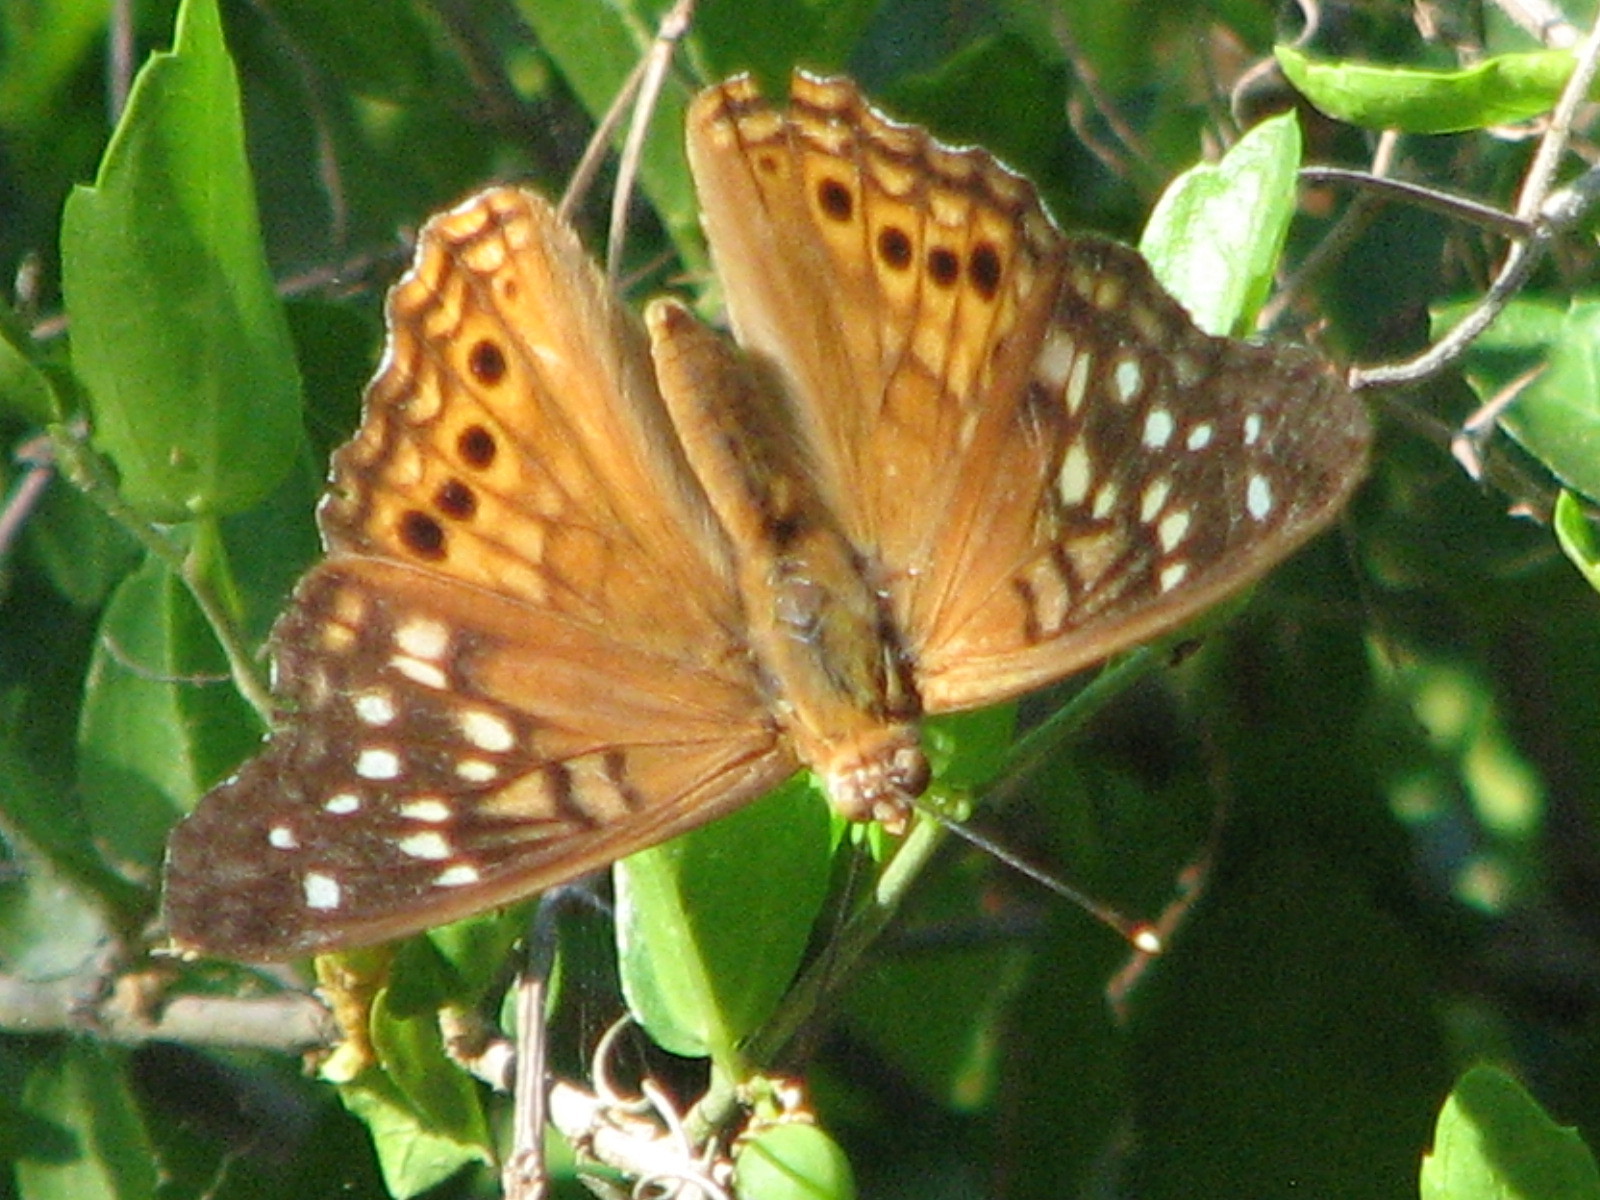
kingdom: Animalia
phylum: Arthropoda
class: Insecta
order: Lepidoptera
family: Nymphalidae
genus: Asterocampa
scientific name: Asterocampa clyton
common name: Tawny emperor
